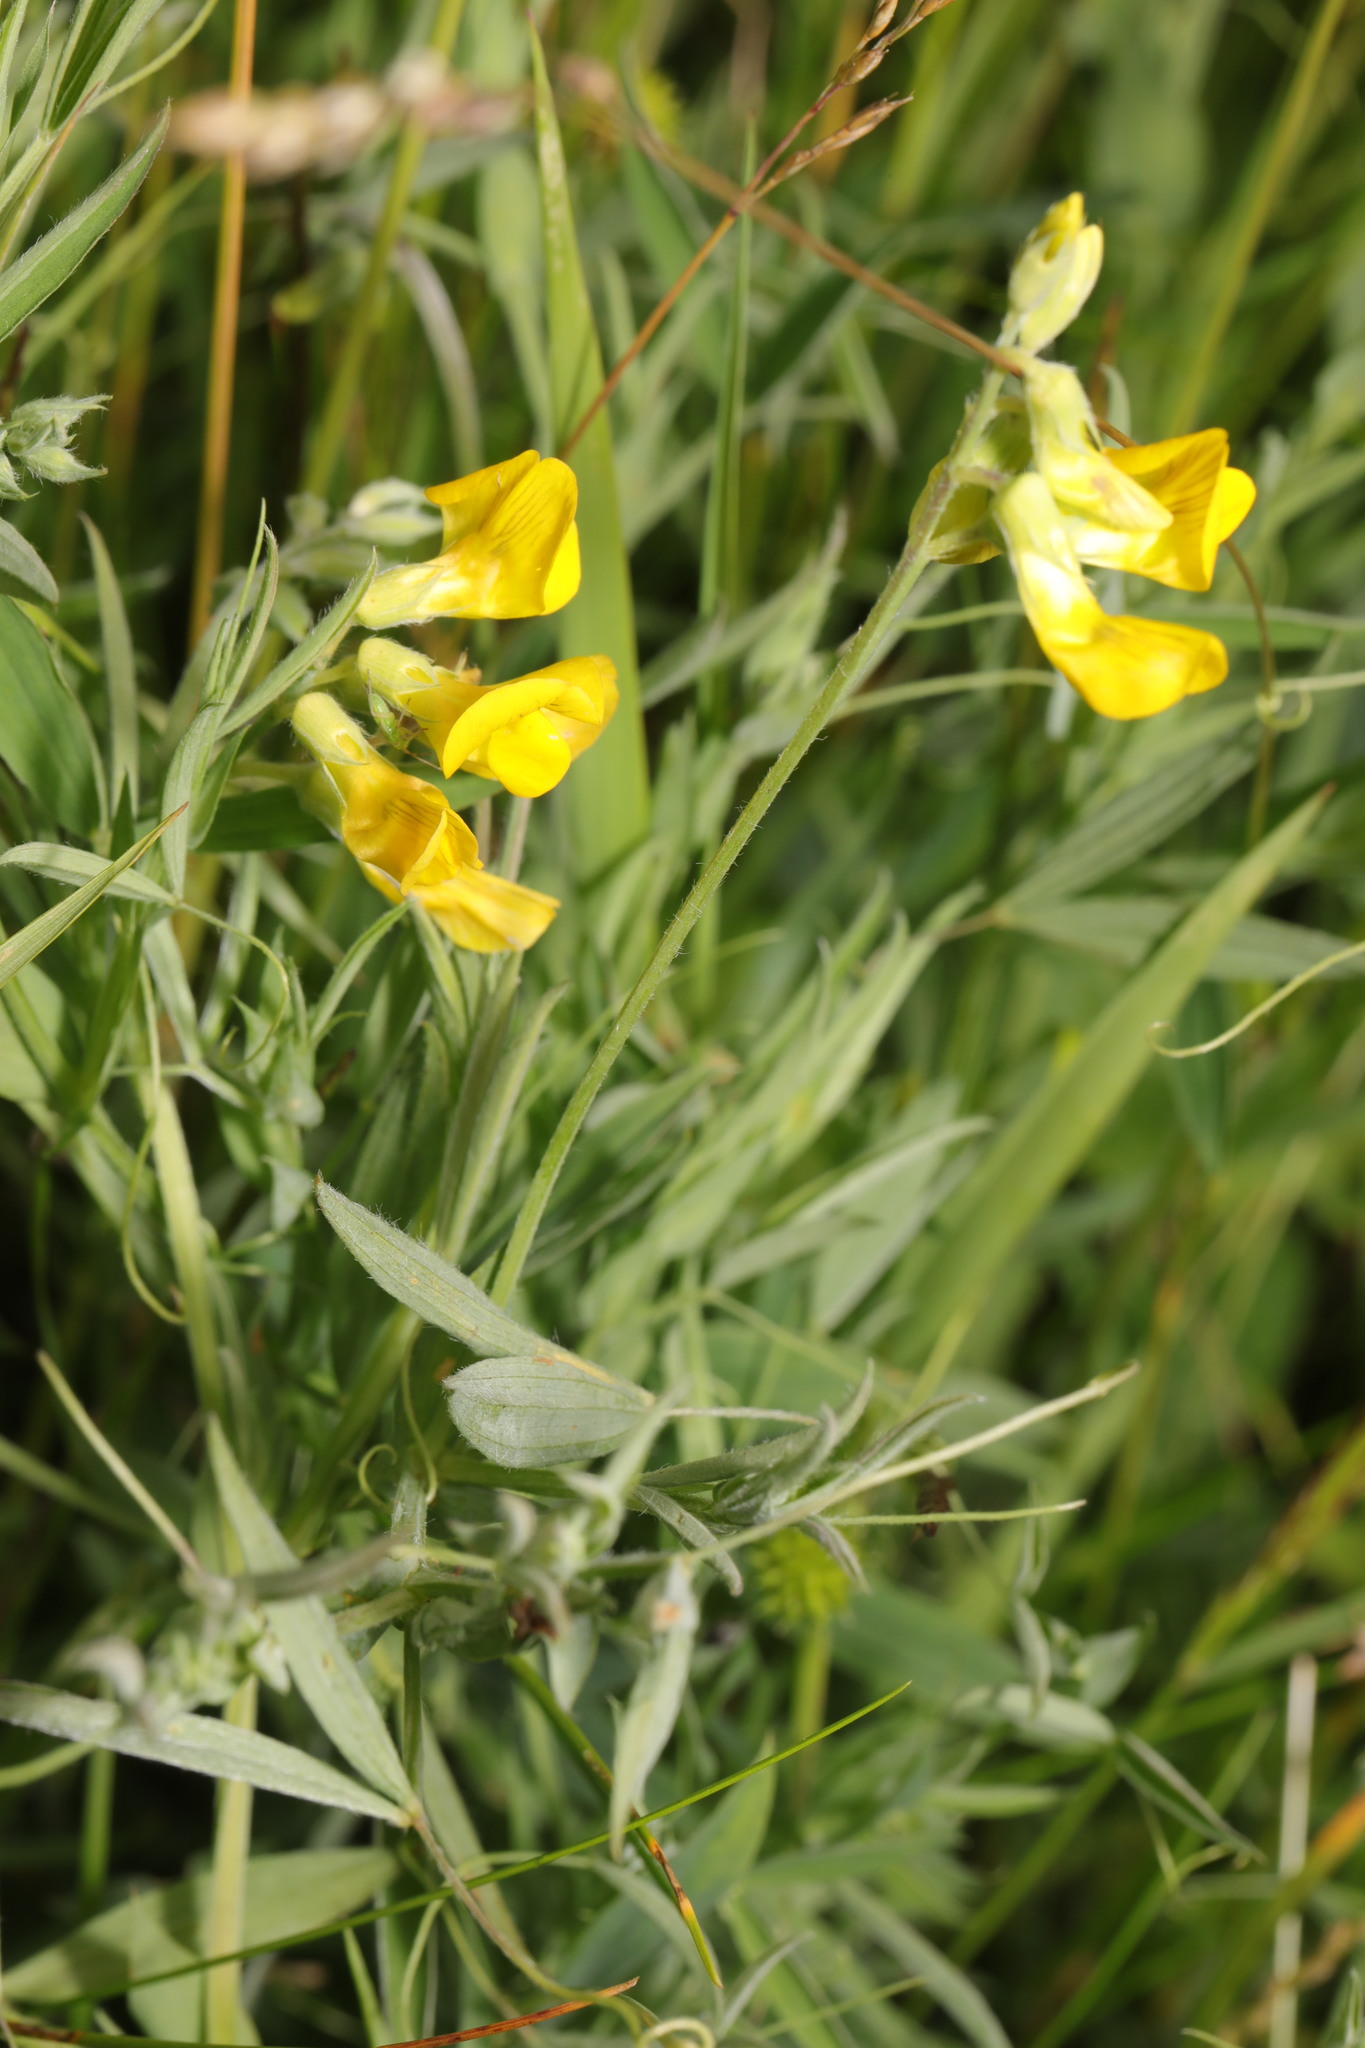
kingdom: Plantae
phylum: Tracheophyta
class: Magnoliopsida
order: Fabales
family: Fabaceae
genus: Lathyrus
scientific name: Lathyrus pratensis
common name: Meadow vetchling
